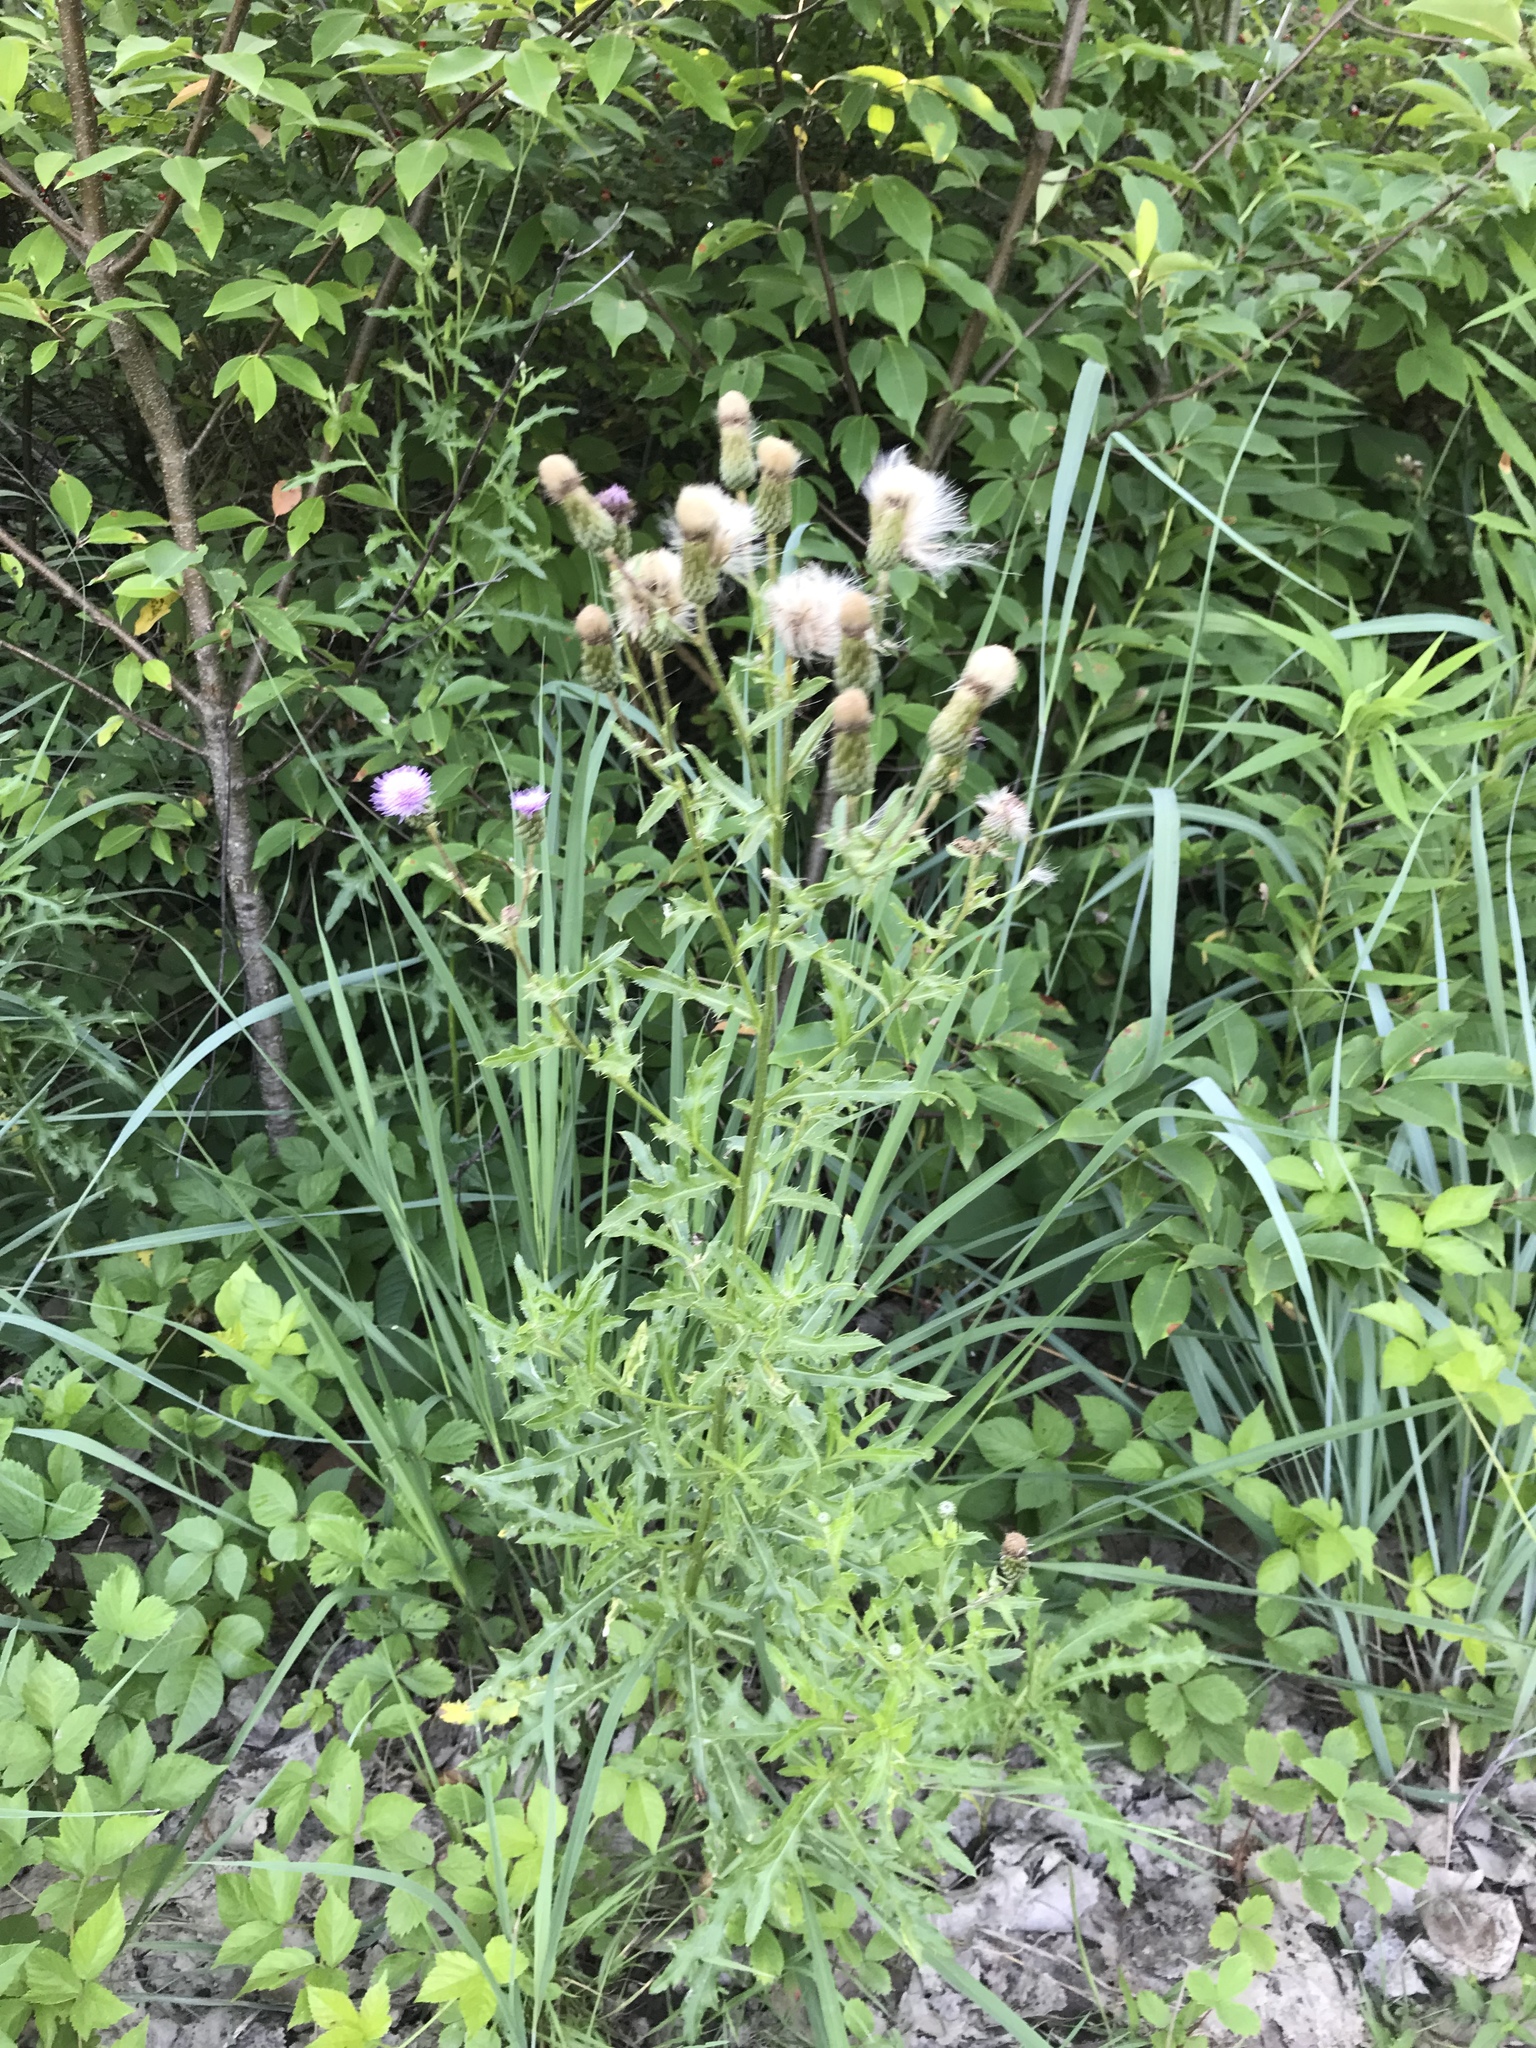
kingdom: Plantae
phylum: Tracheophyta
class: Magnoliopsida
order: Asterales
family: Asteraceae
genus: Cirsium
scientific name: Cirsium arvense
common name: Creeping thistle
